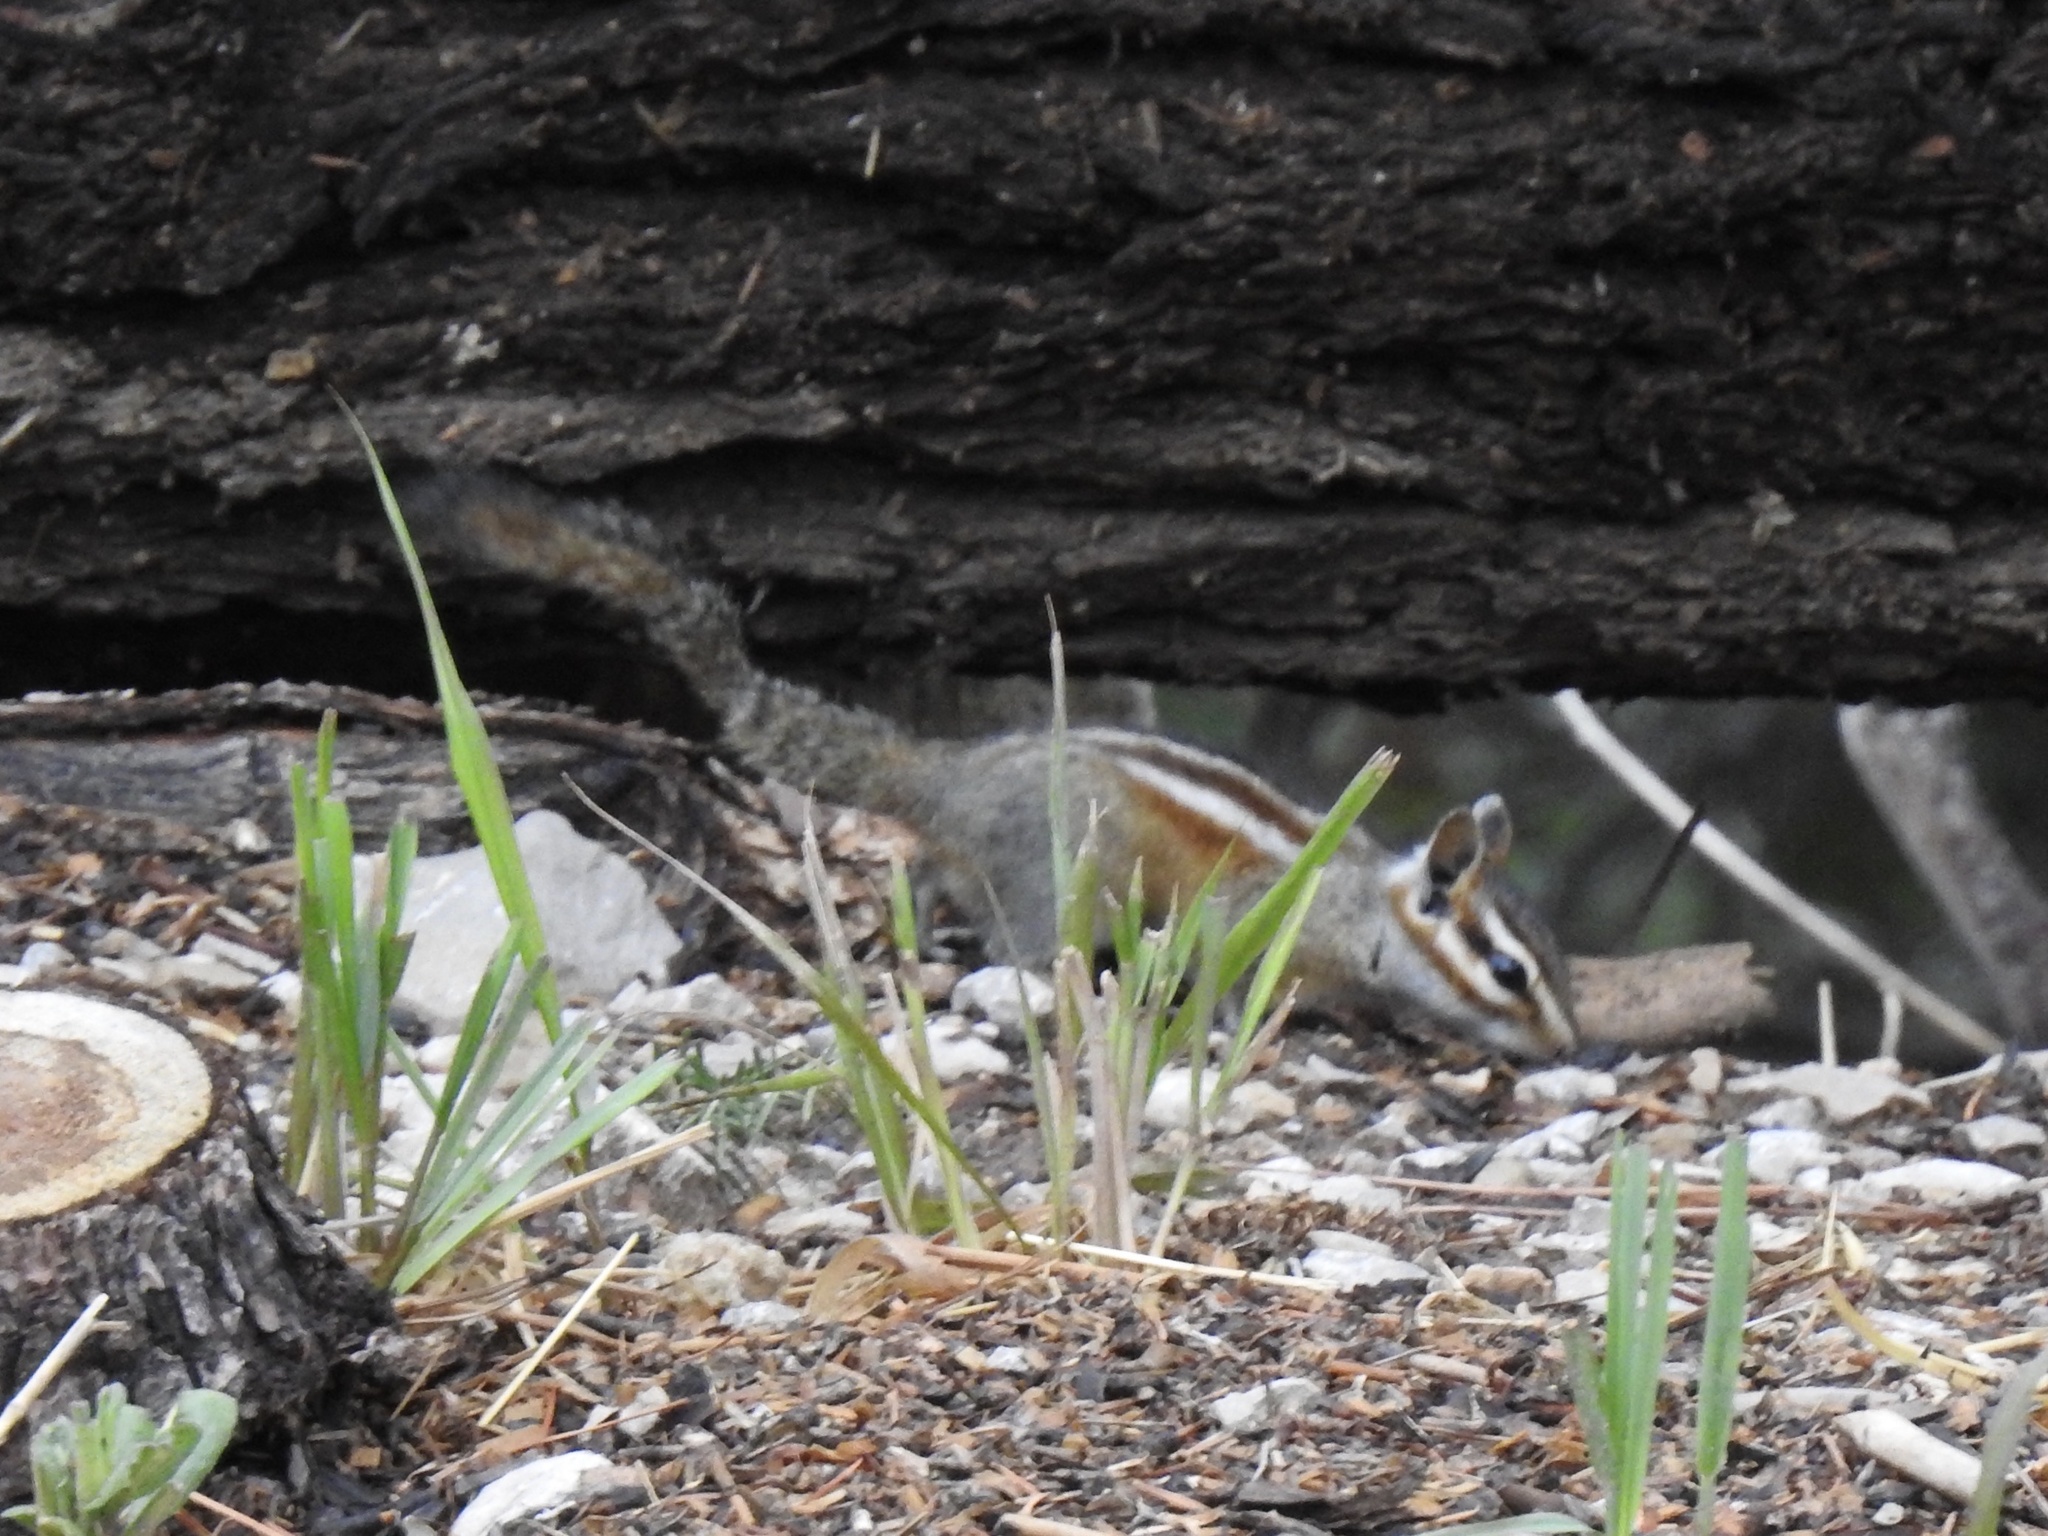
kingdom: Animalia
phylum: Chordata
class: Mammalia
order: Rodentia
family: Sciuridae
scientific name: Sciuridae
